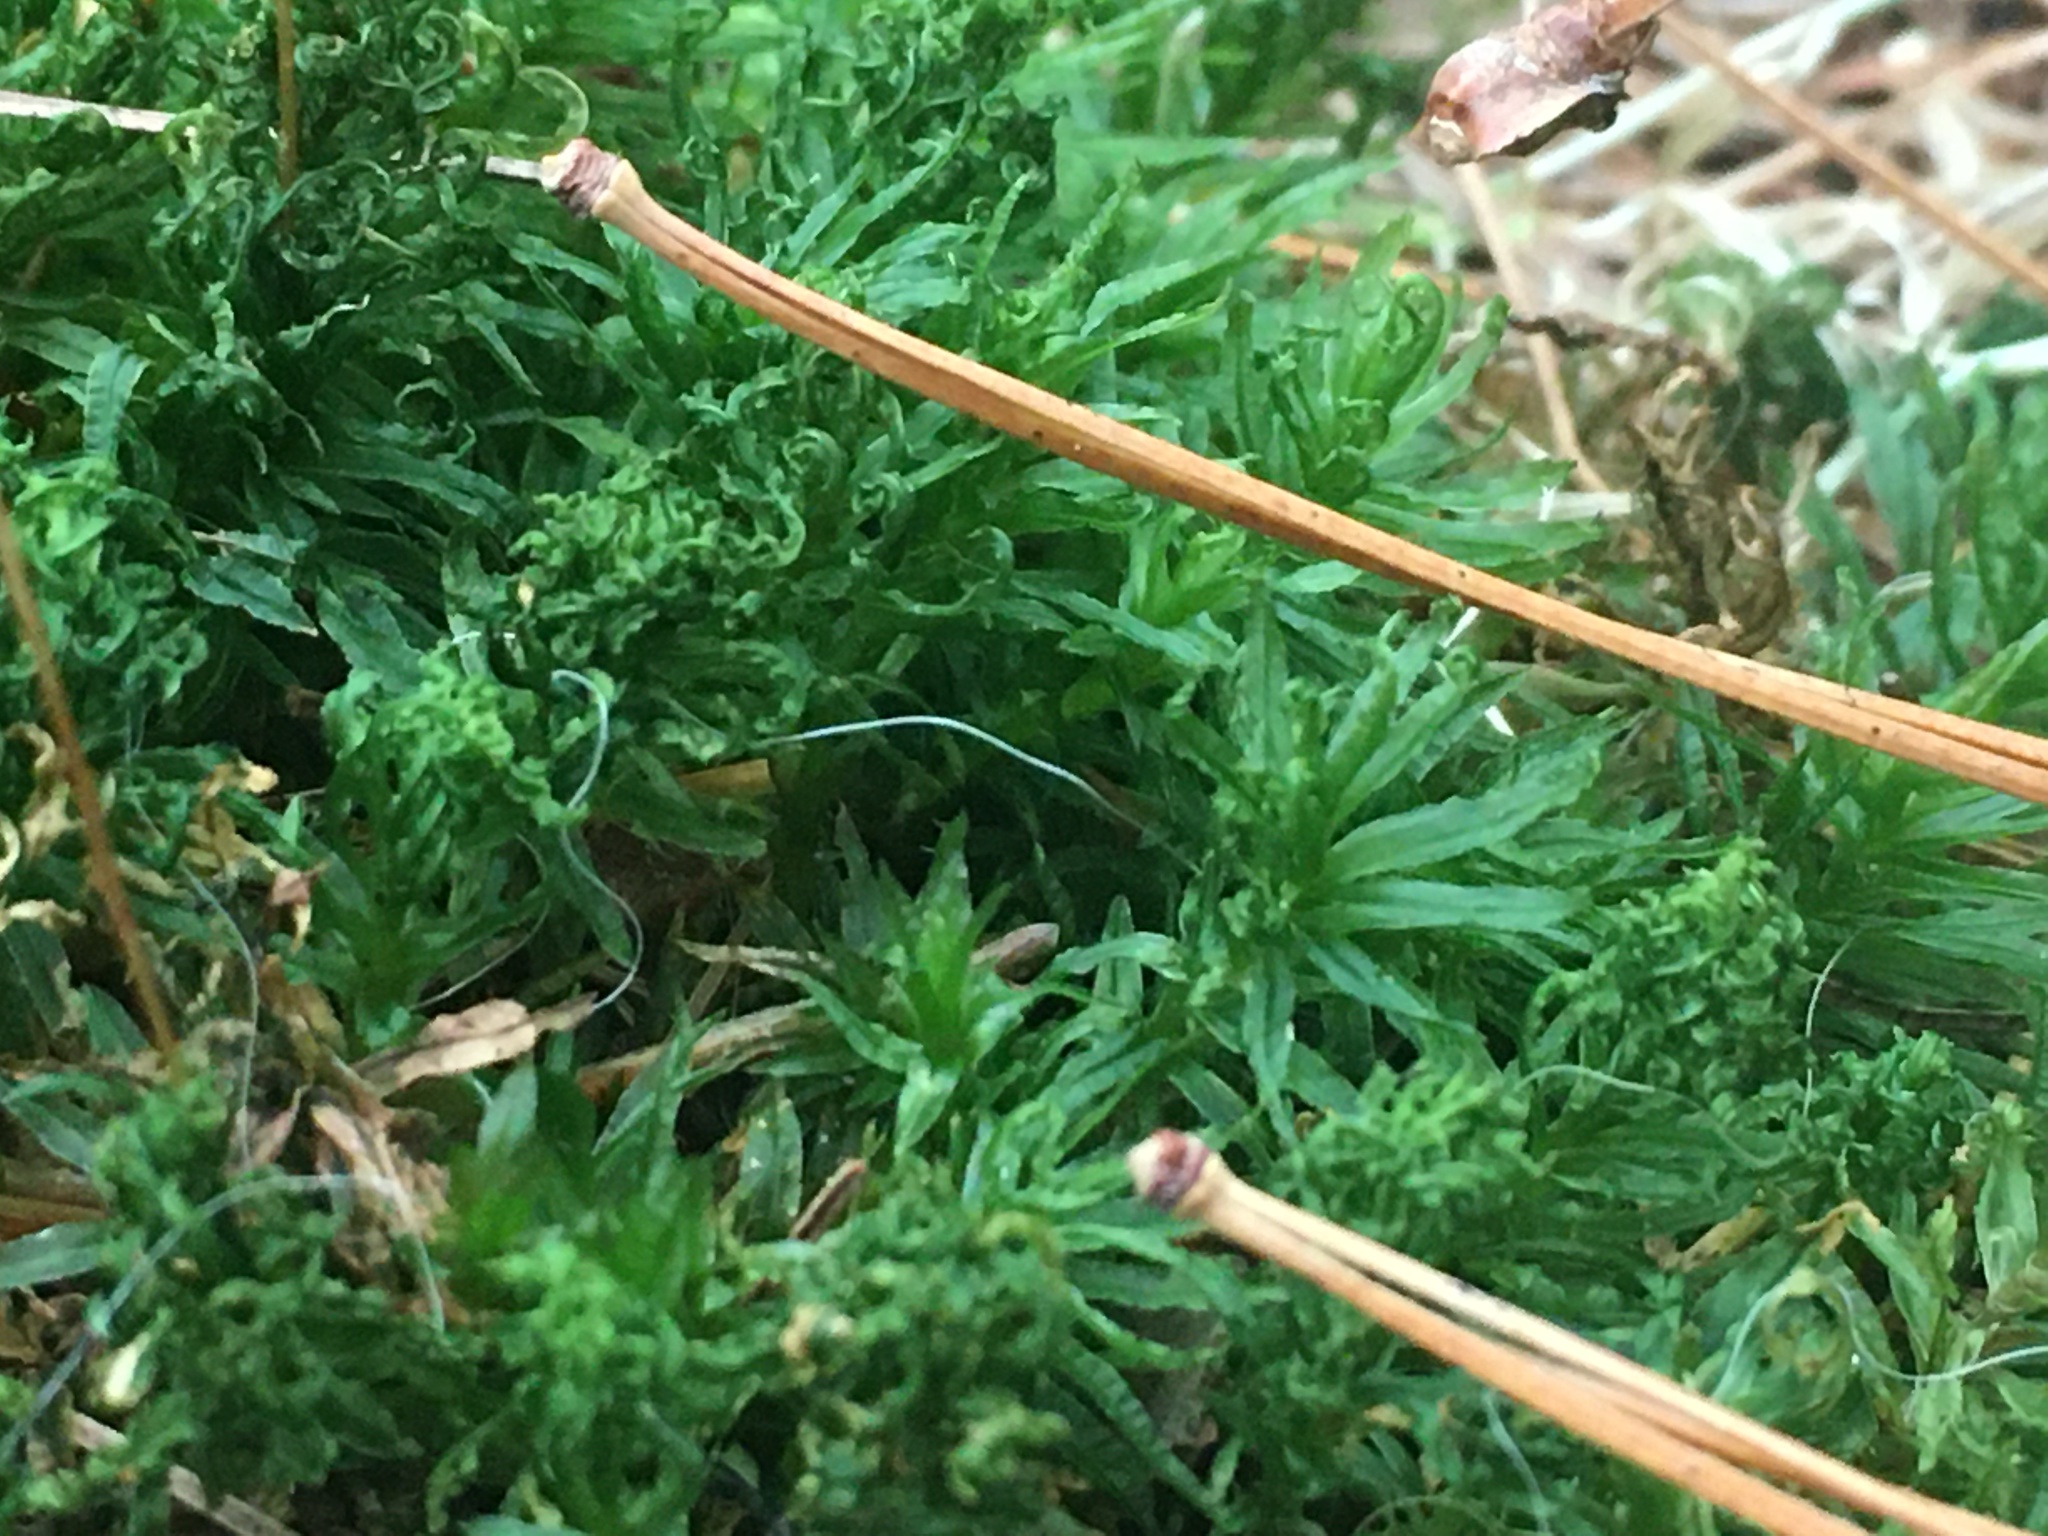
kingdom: Plantae
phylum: Bryophyta
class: Polytrichopsida
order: Polytrichales
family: Polytrichaceae
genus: Atrichum
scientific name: Atrichum undulatum
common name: Common smoothcap
